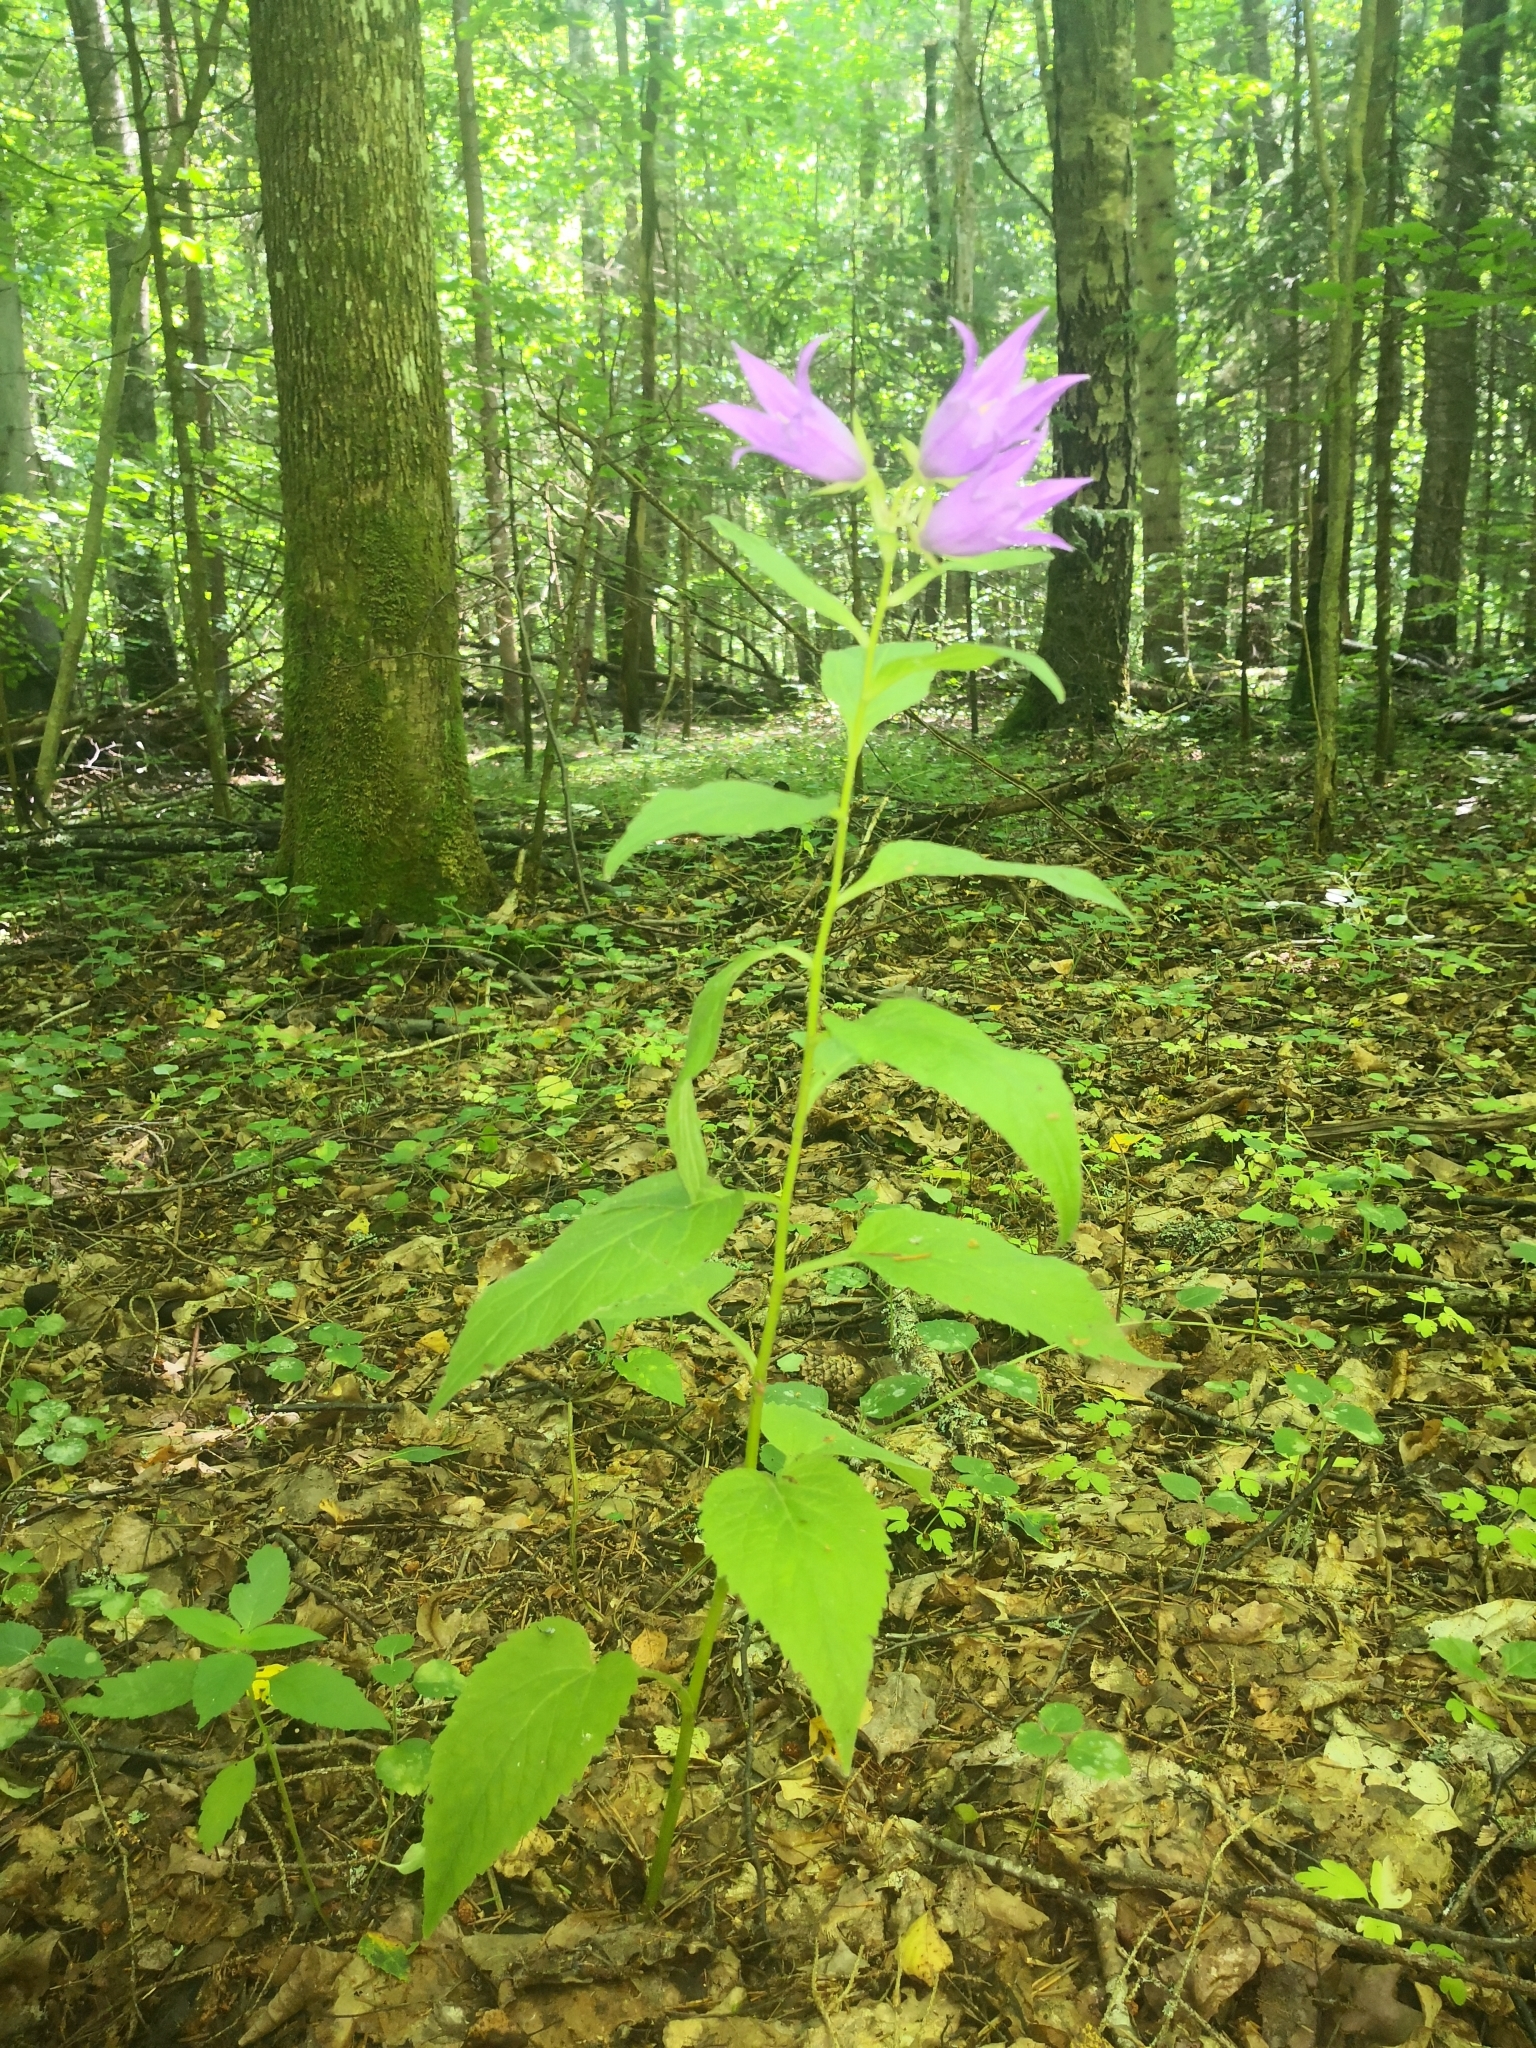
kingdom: Plantae
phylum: Tracheophyta
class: Magnoliopsida
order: Asterales
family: Campanulaceae
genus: Campanula
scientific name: Campanula latifolia
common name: Giant bellflower
